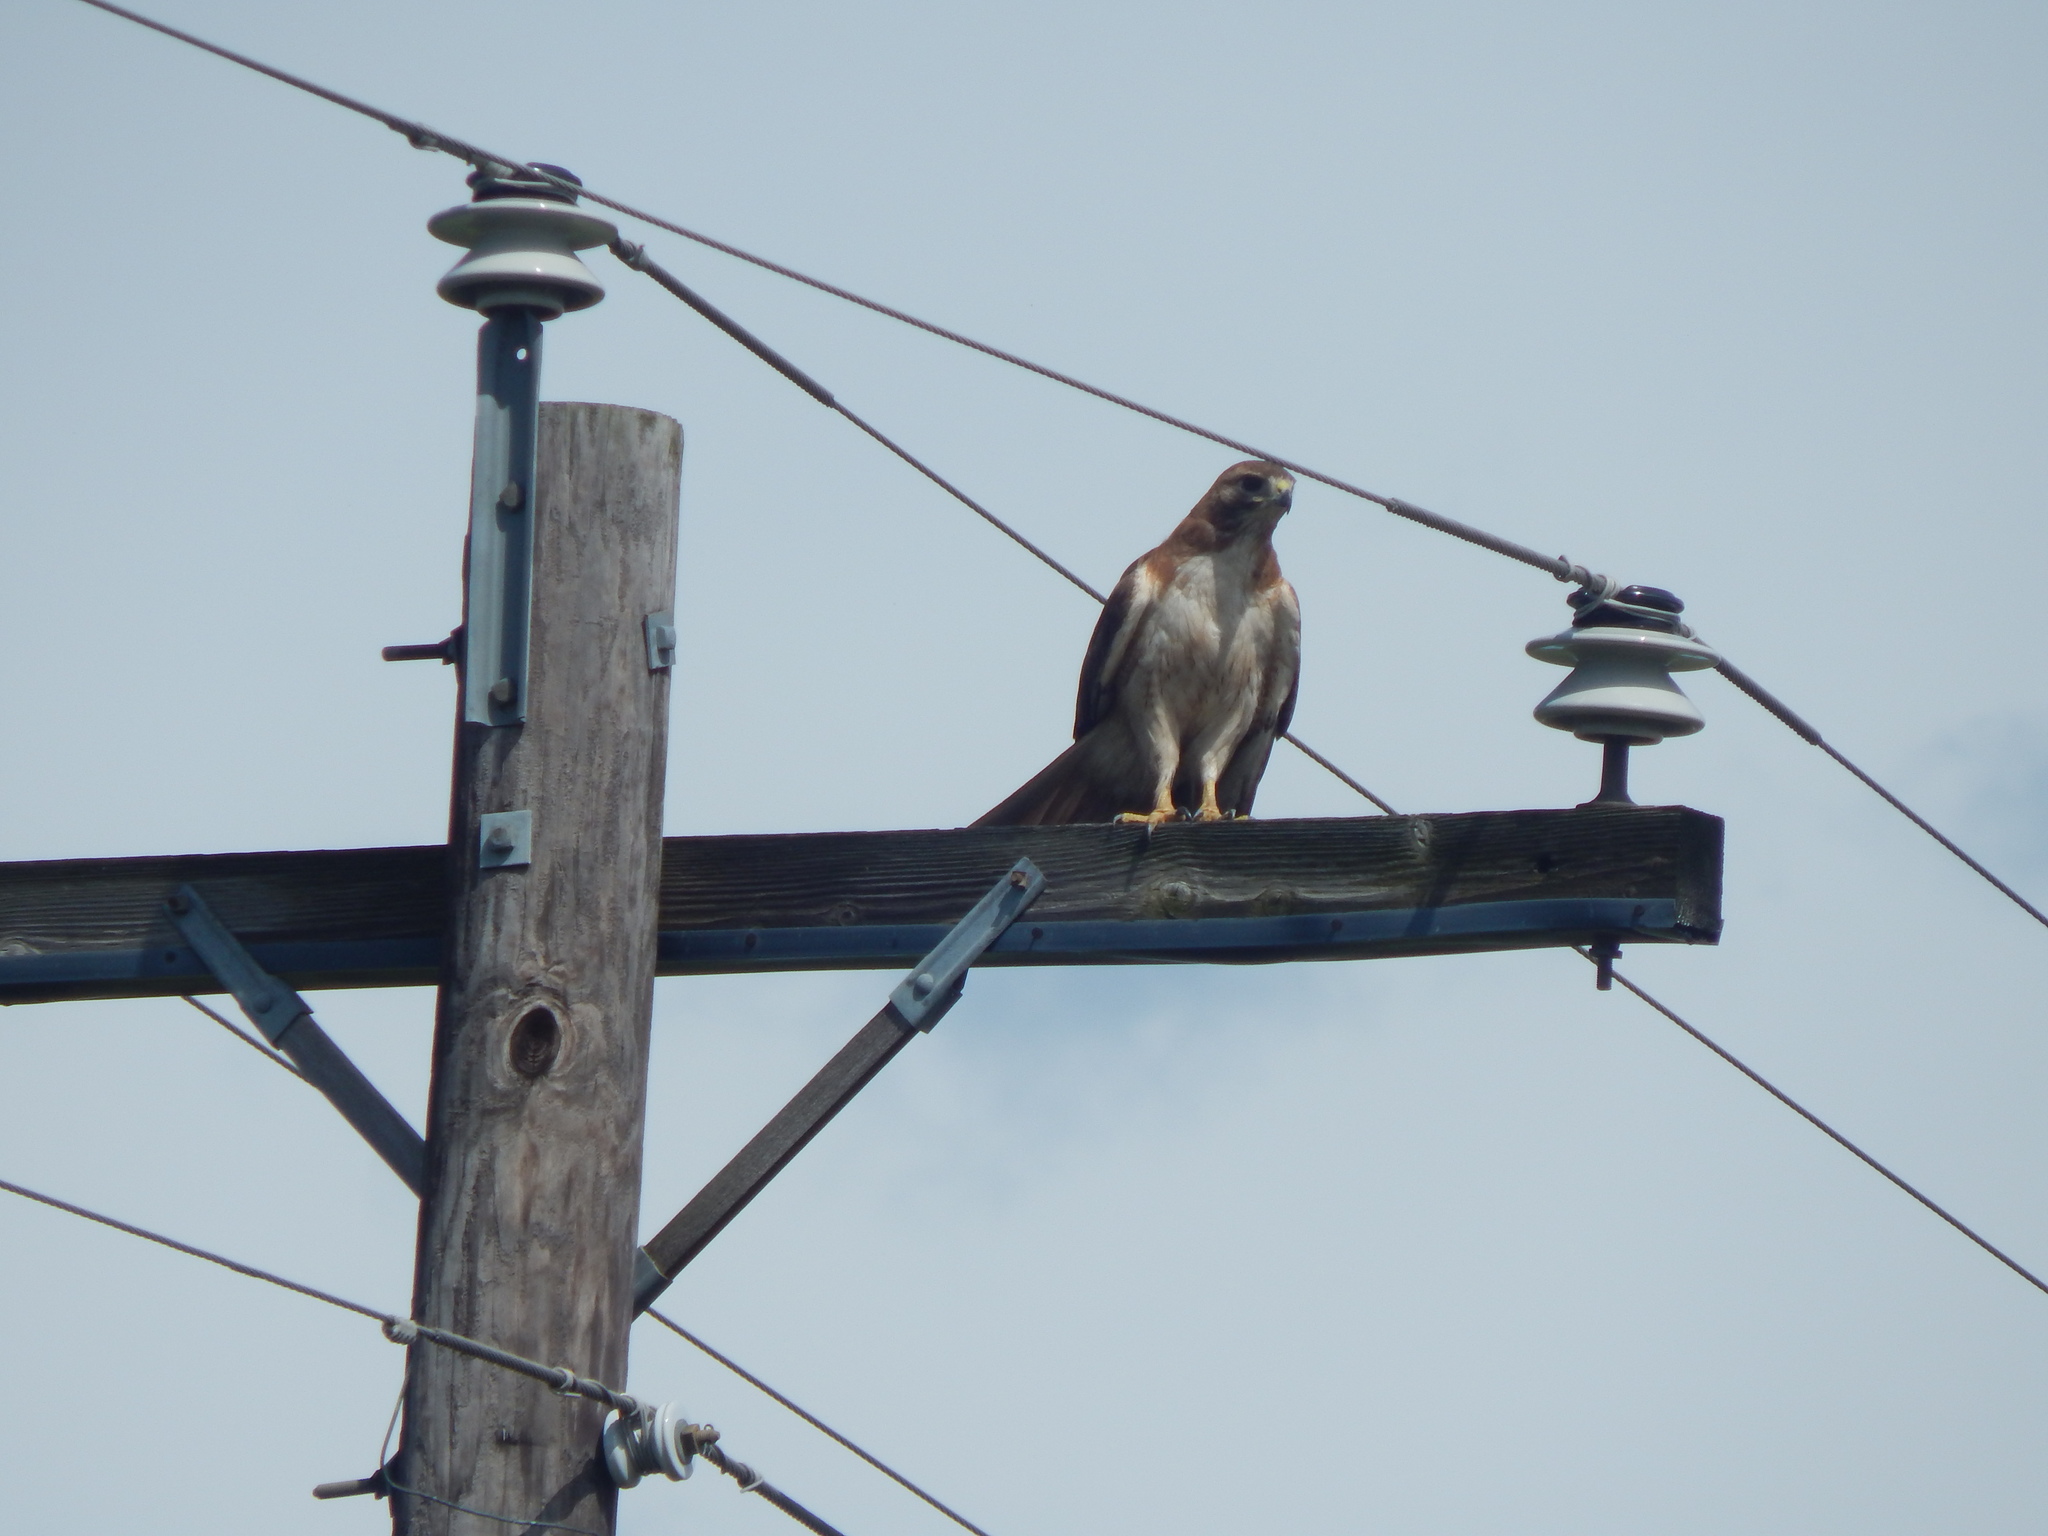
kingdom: Animalia
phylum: Chordata
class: Aves
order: Accipitriformes
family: Accipitridae
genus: Buteo
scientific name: Buteo jamaicensis
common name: Red-tailed hawk
